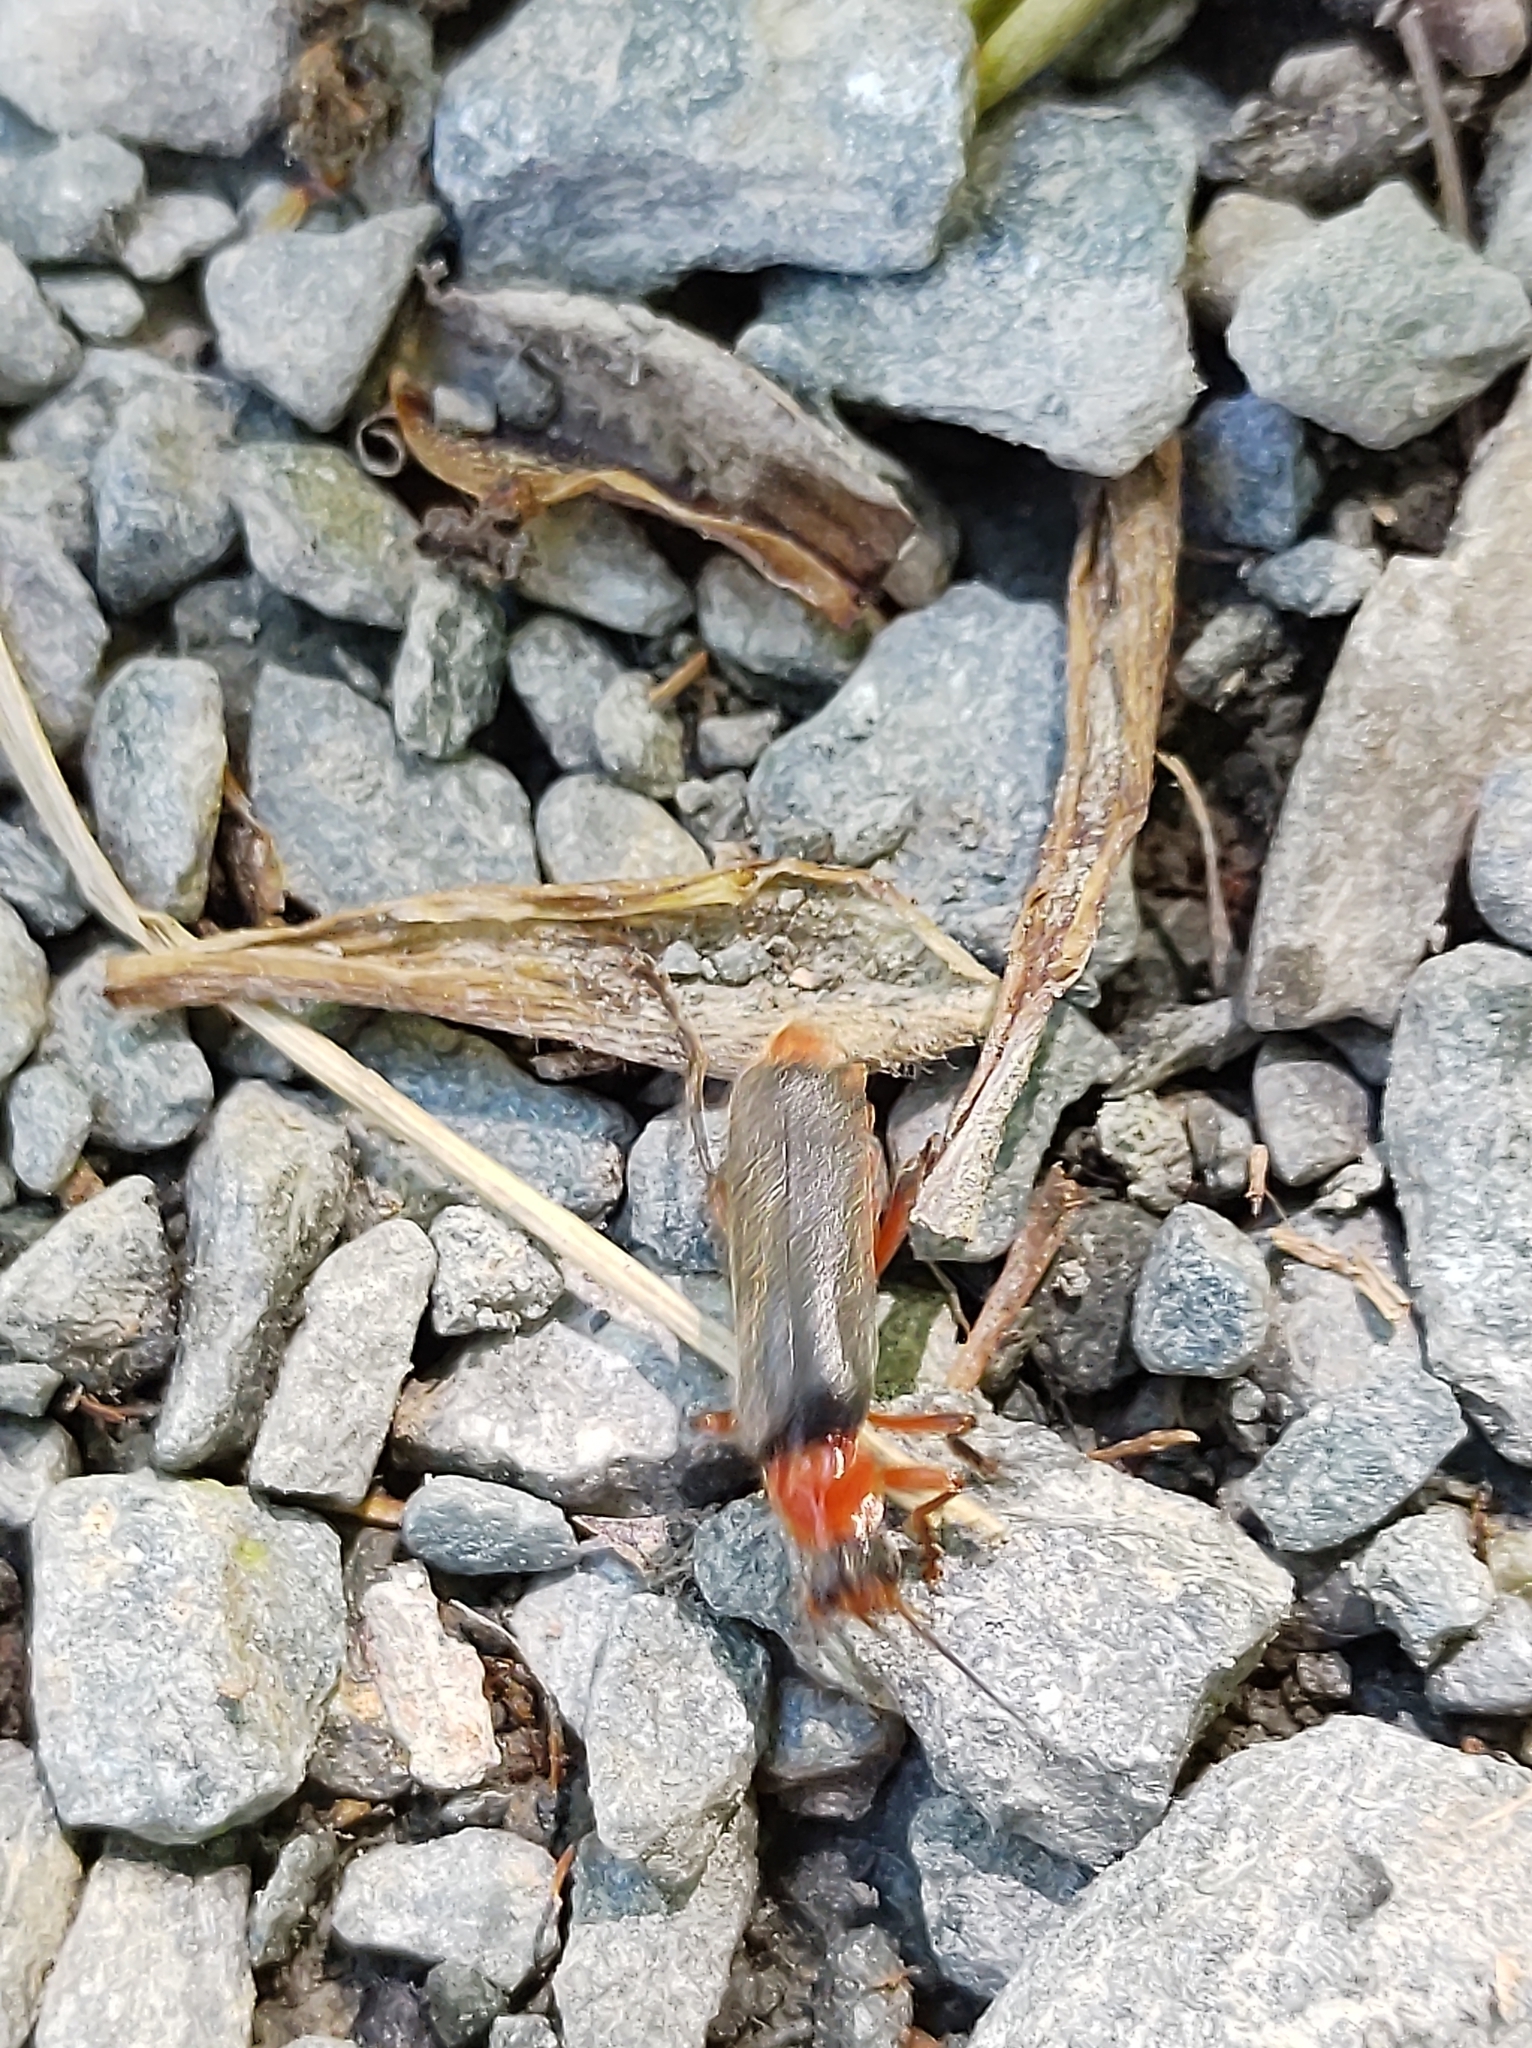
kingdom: Animalia
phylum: Arthropoda
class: Insecta
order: Coleoptera
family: Cantharidae
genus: Cantharis
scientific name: Cantharis pellucida
